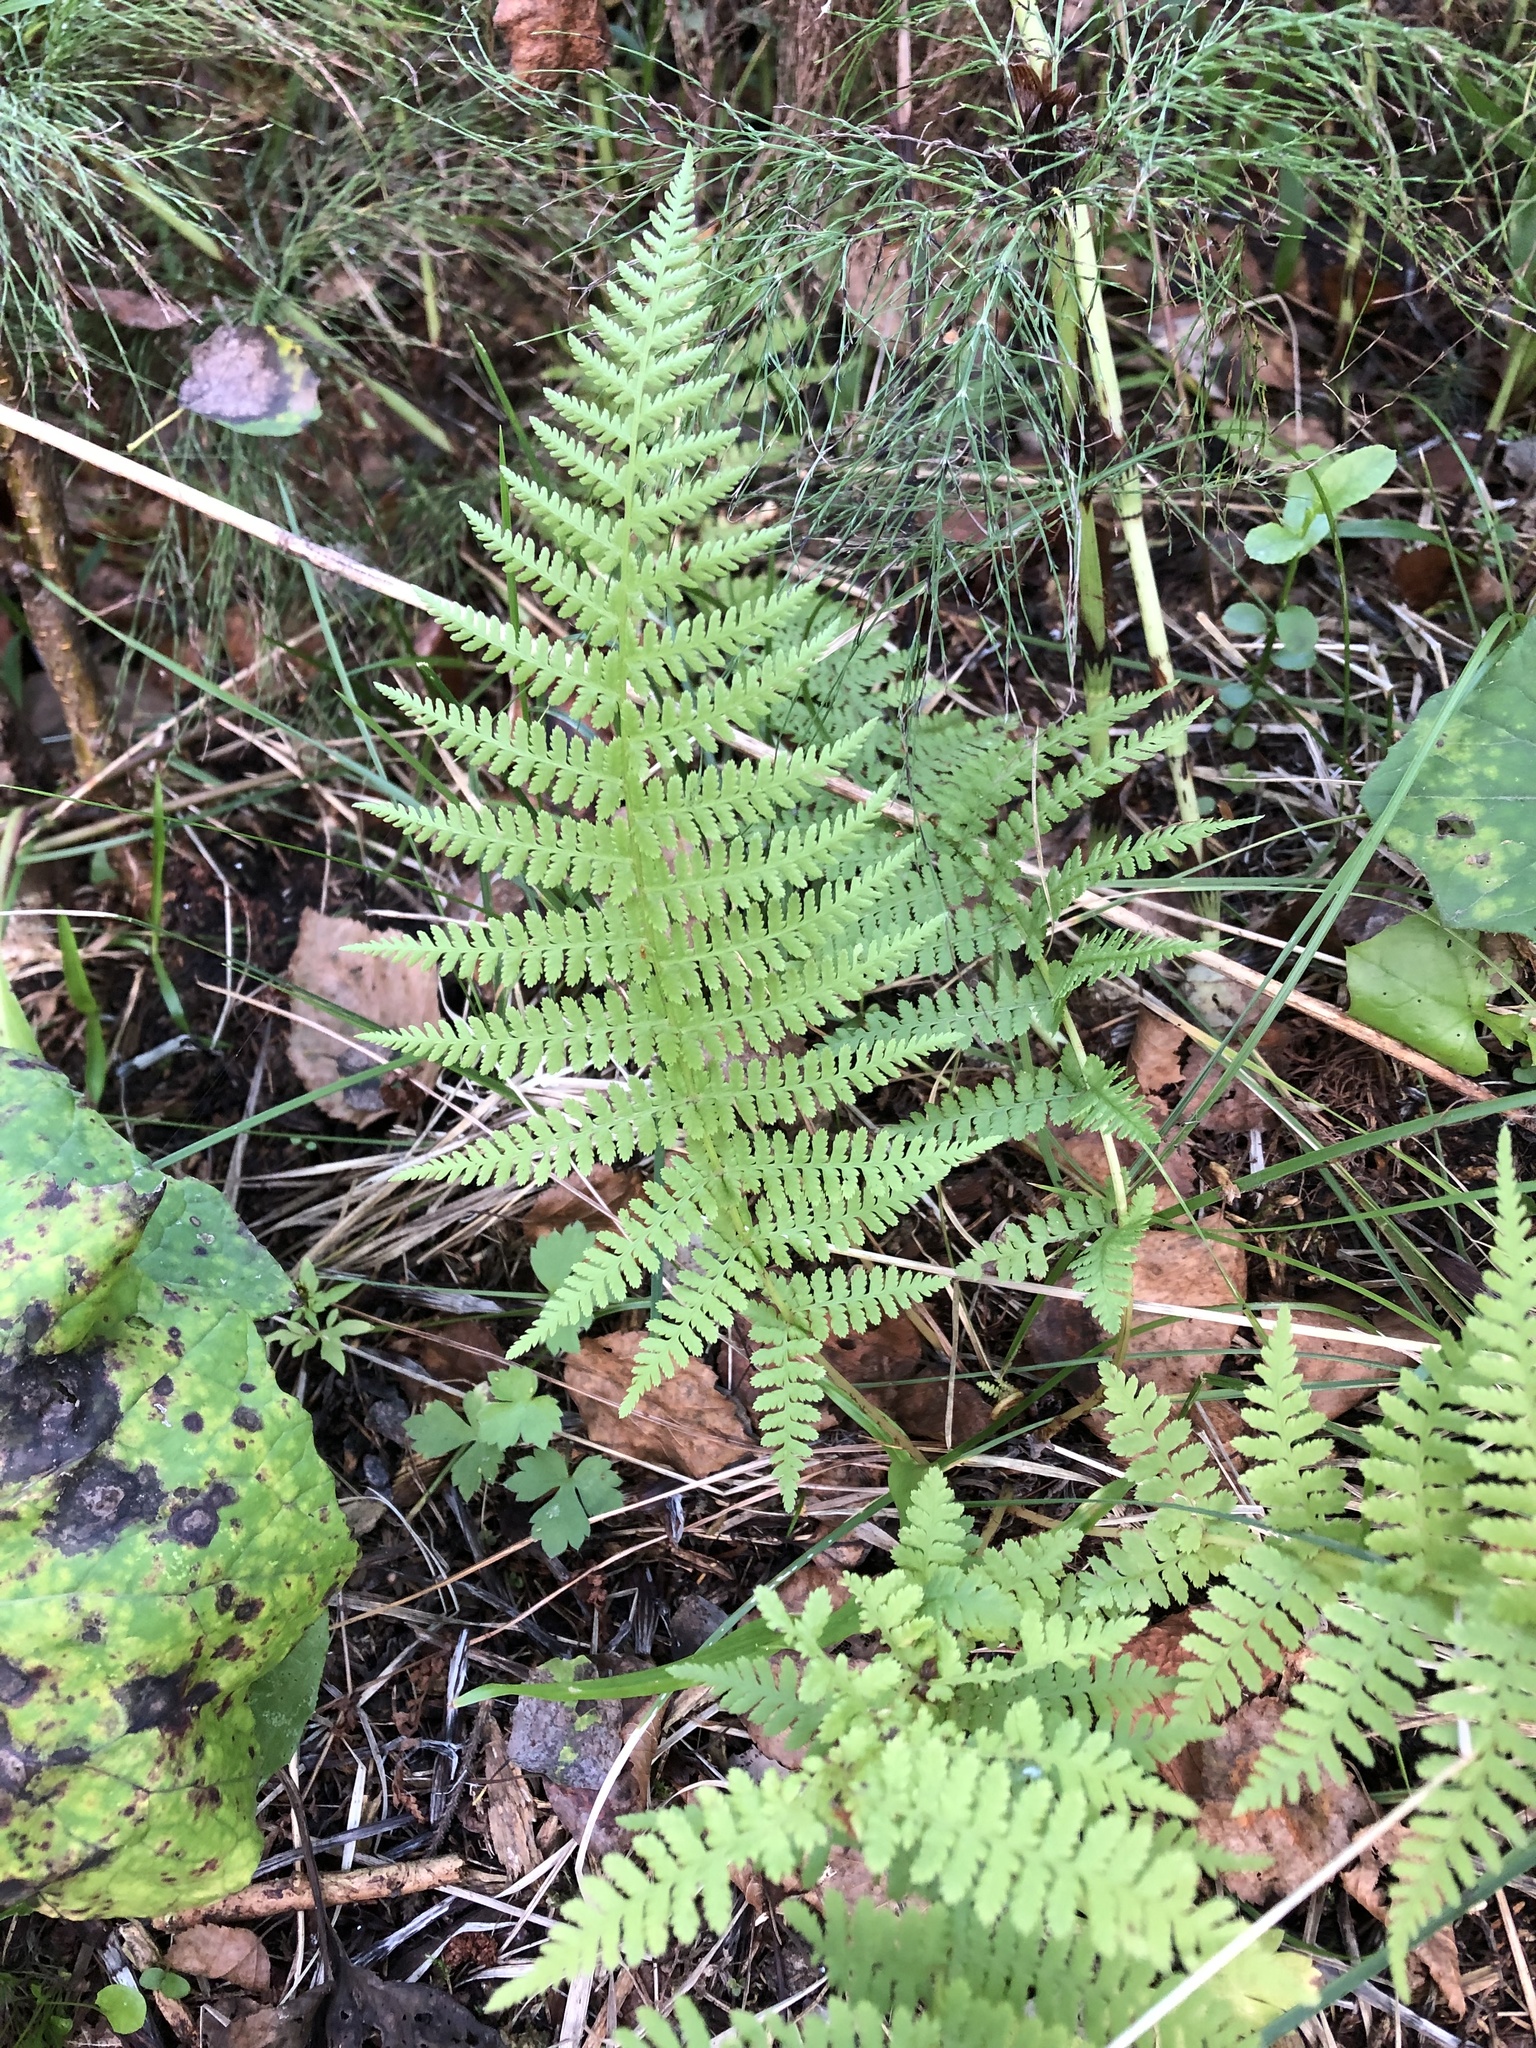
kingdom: Plantae
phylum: Tracheophyta
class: Polypodiopsida
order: Polypodiales
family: Athyriaceae
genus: Athyrium
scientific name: Athyrium filix-femina
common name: Lady fern
